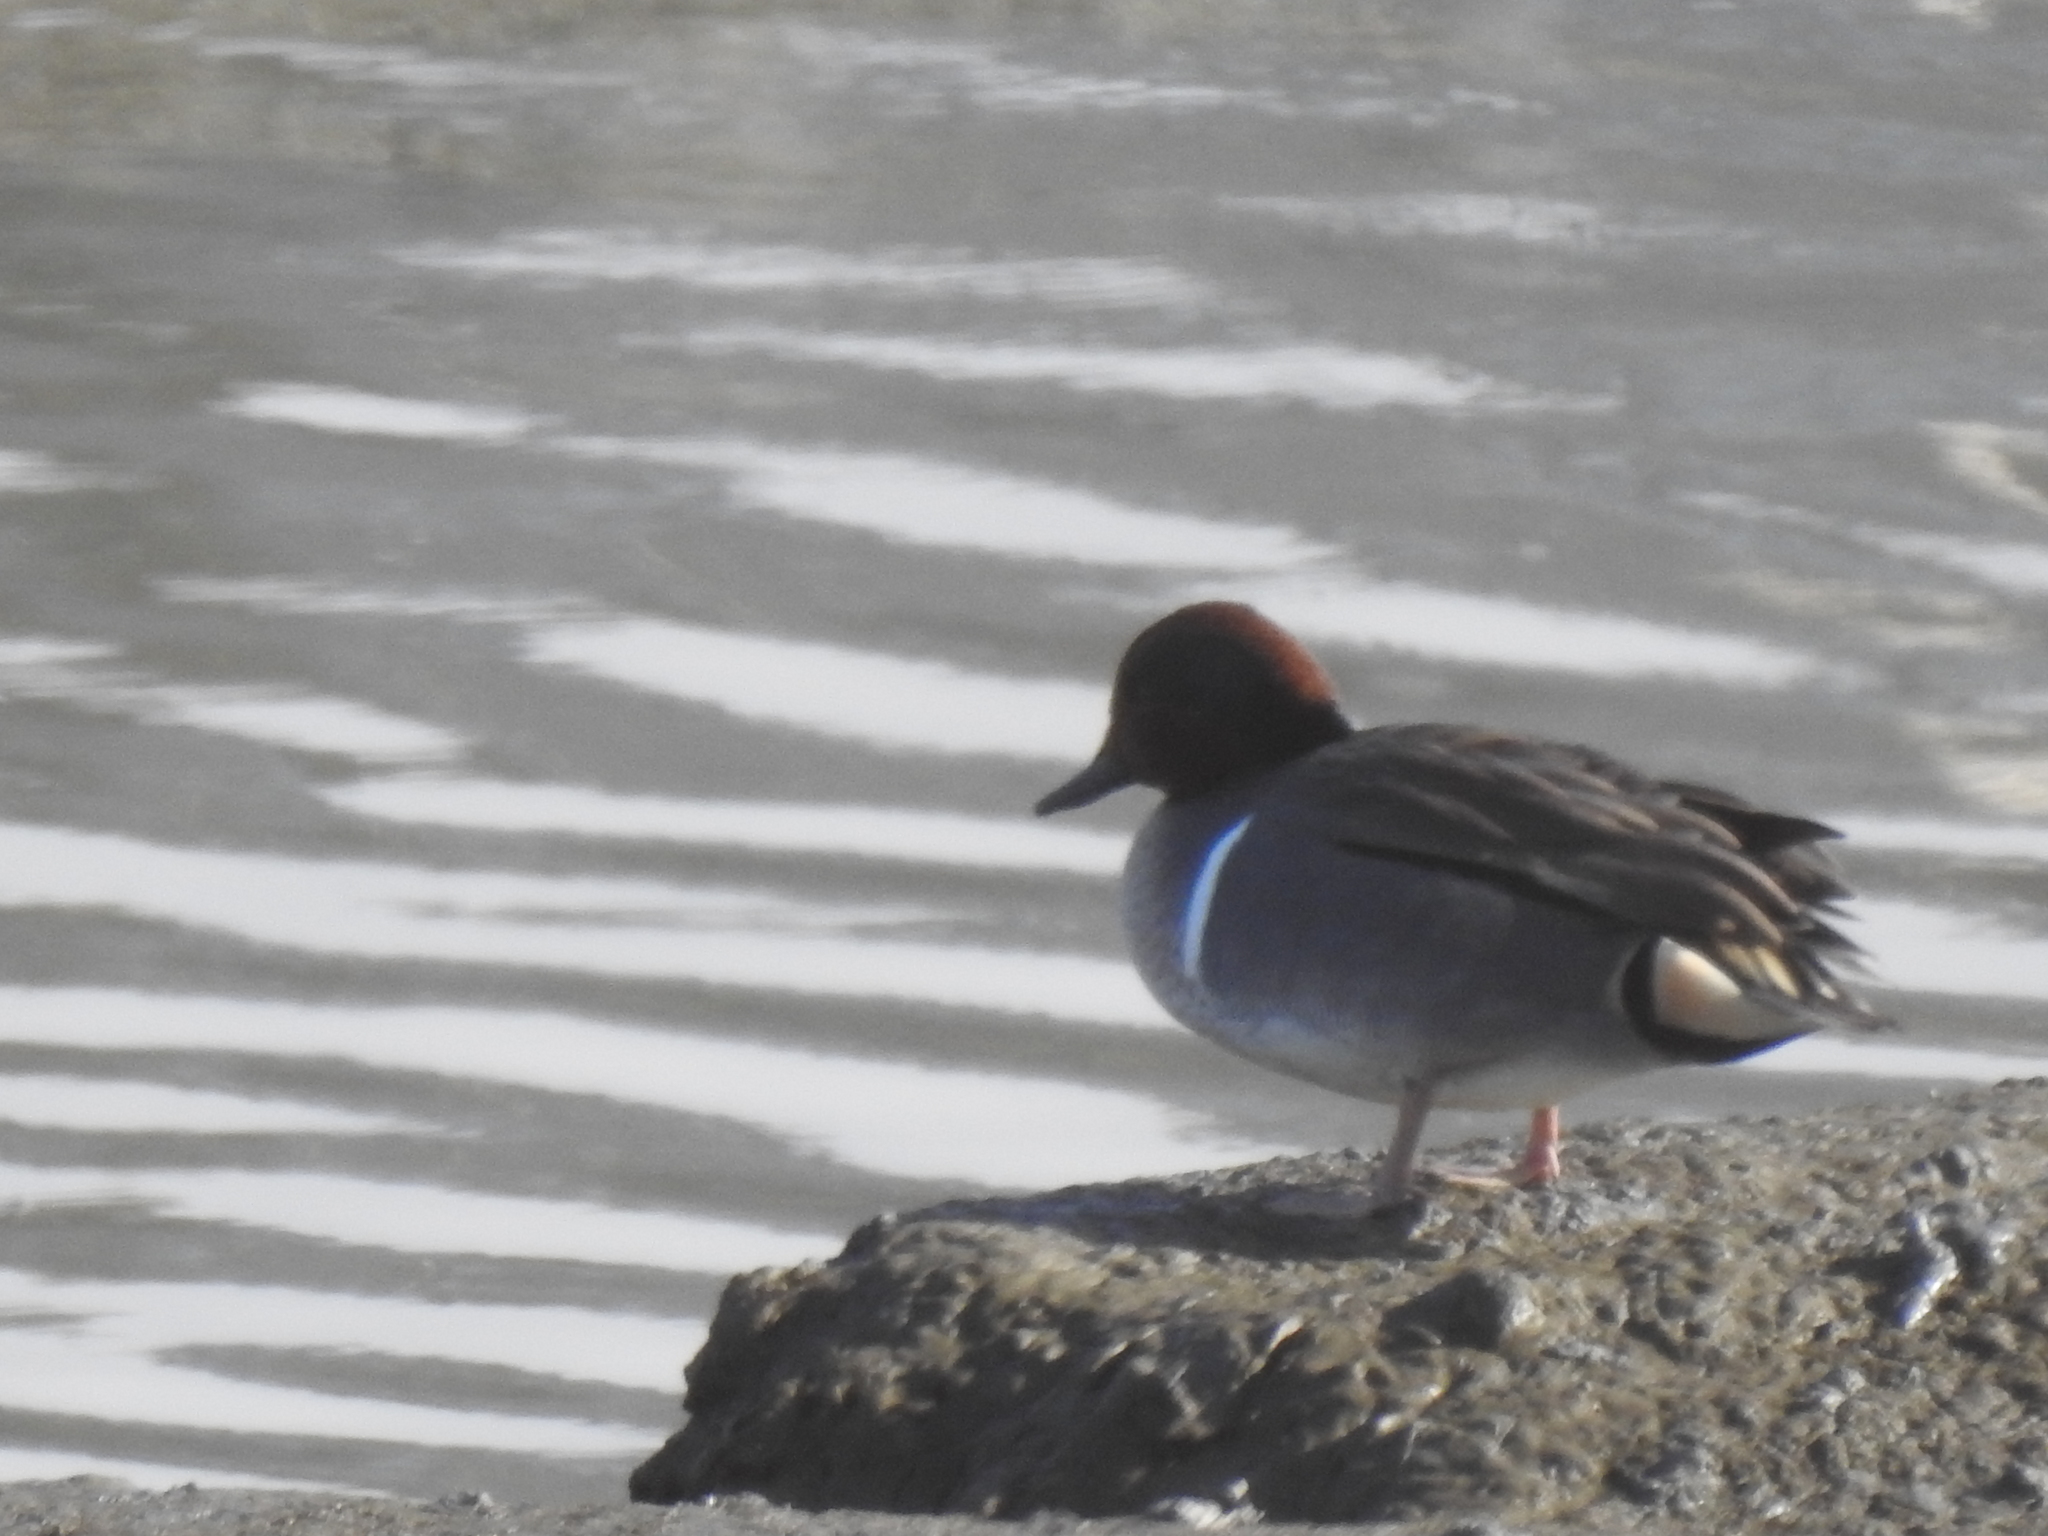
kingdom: Animalia
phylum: Chordata
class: Aves
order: Anseriformes
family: Anatidae
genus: Anas
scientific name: Anas crecca
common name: Eurasian teal
